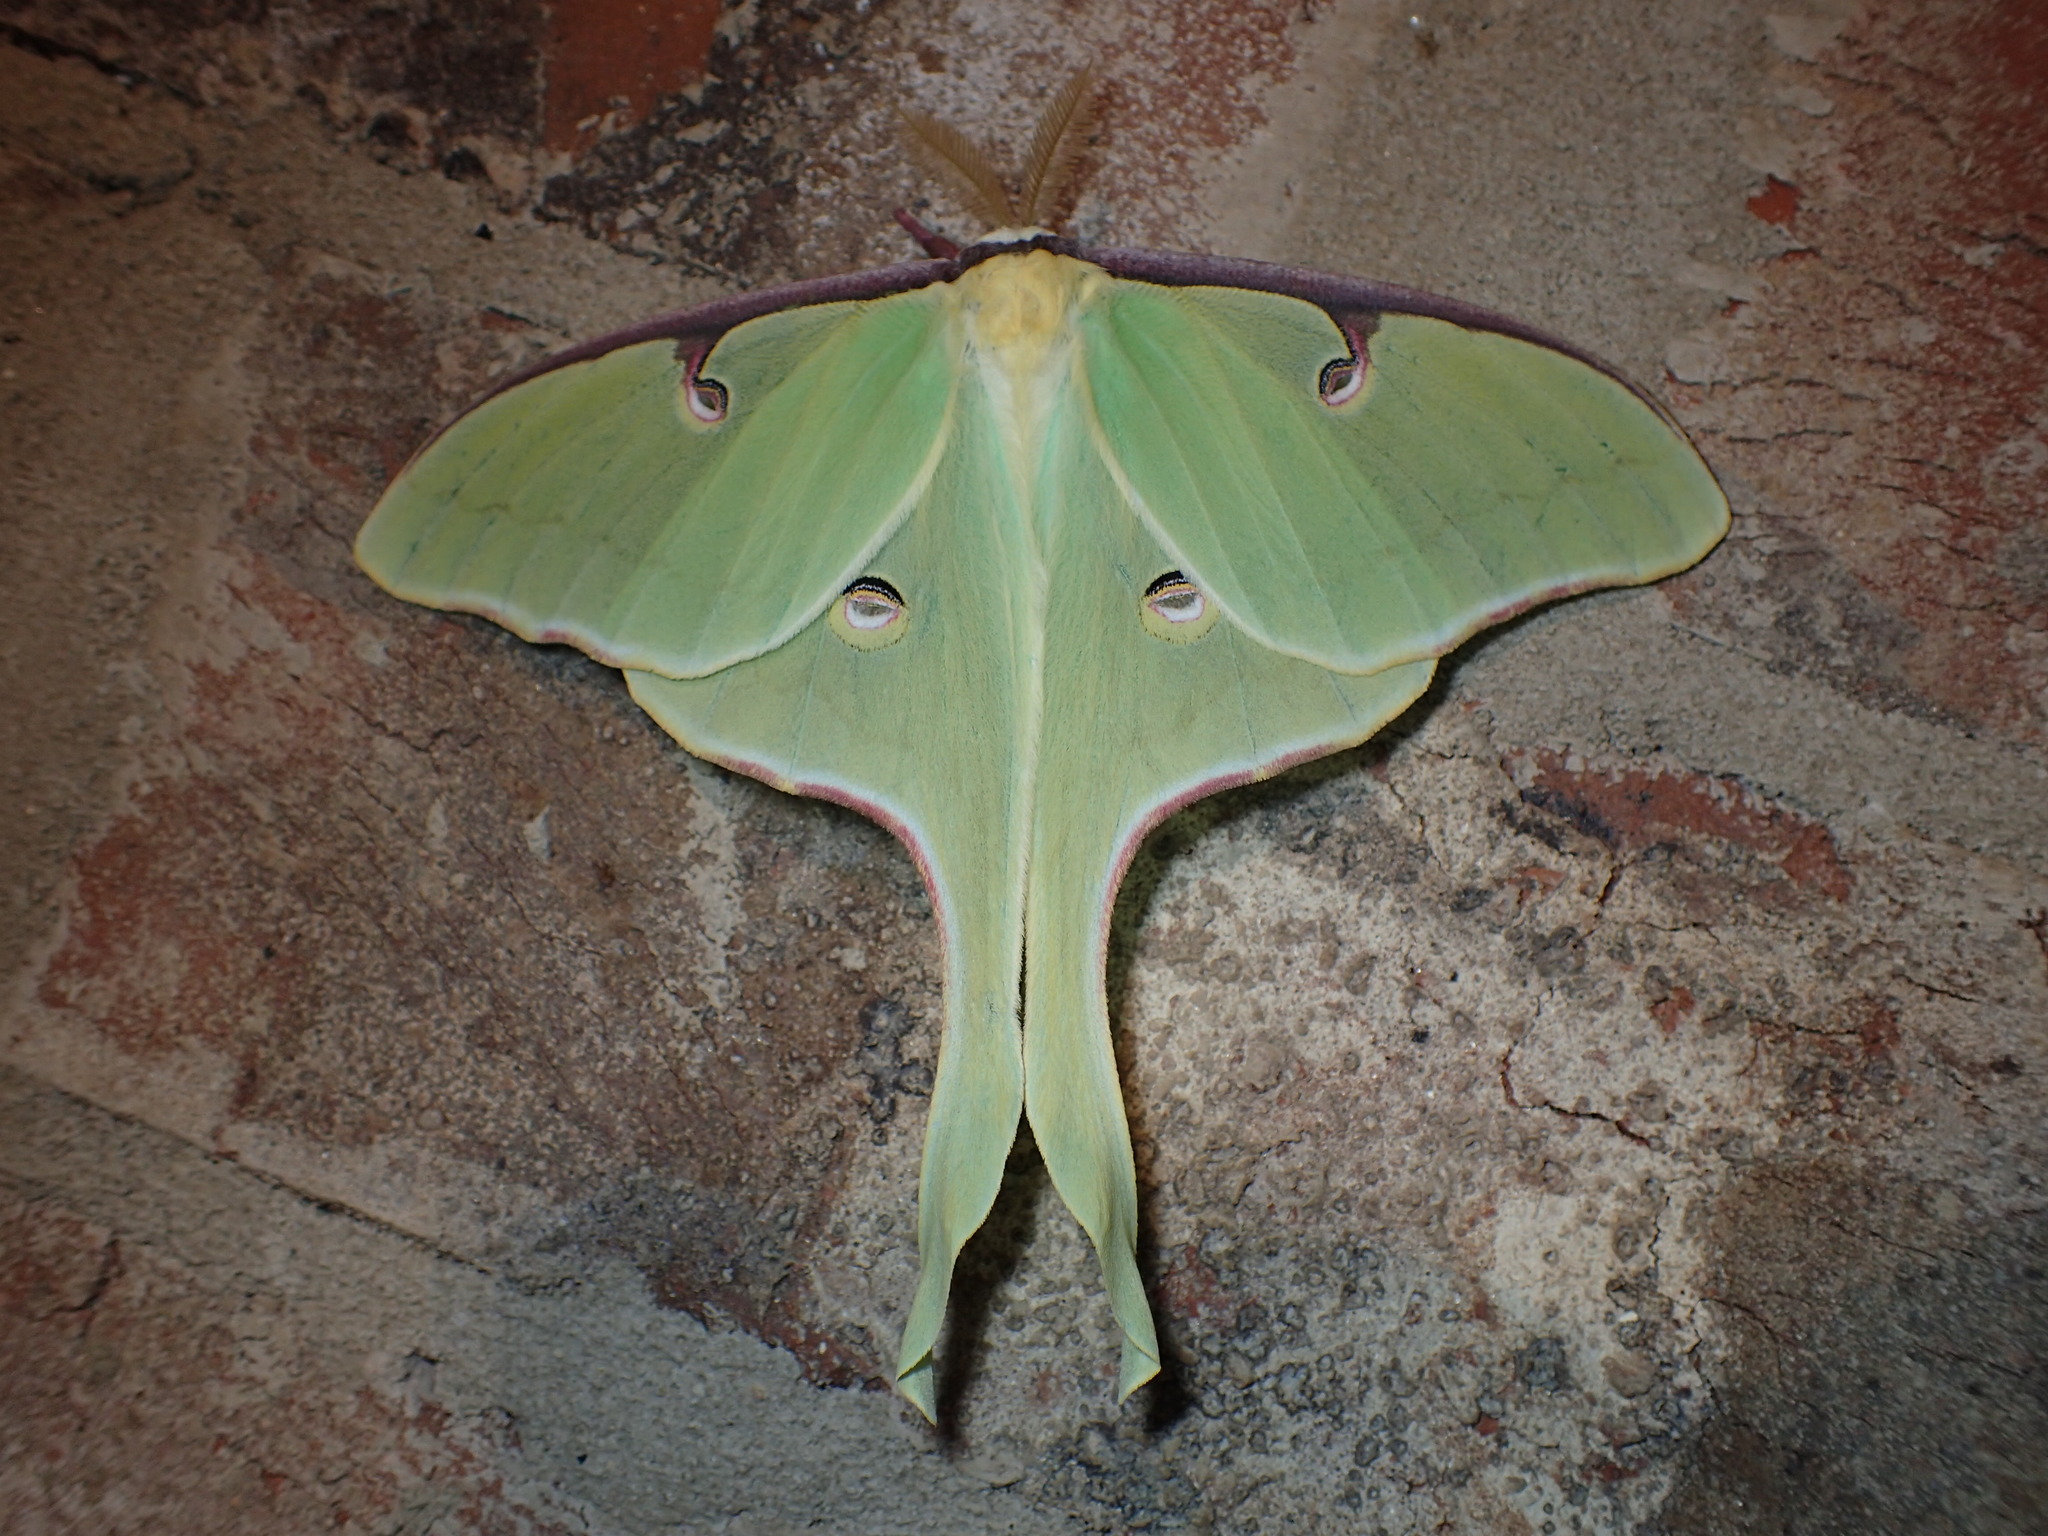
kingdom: Animalia
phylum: Arthropoda
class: Insecta
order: Lepidoptera
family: Saturniidae
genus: Actias
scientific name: Actias luna
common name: Luna moth
